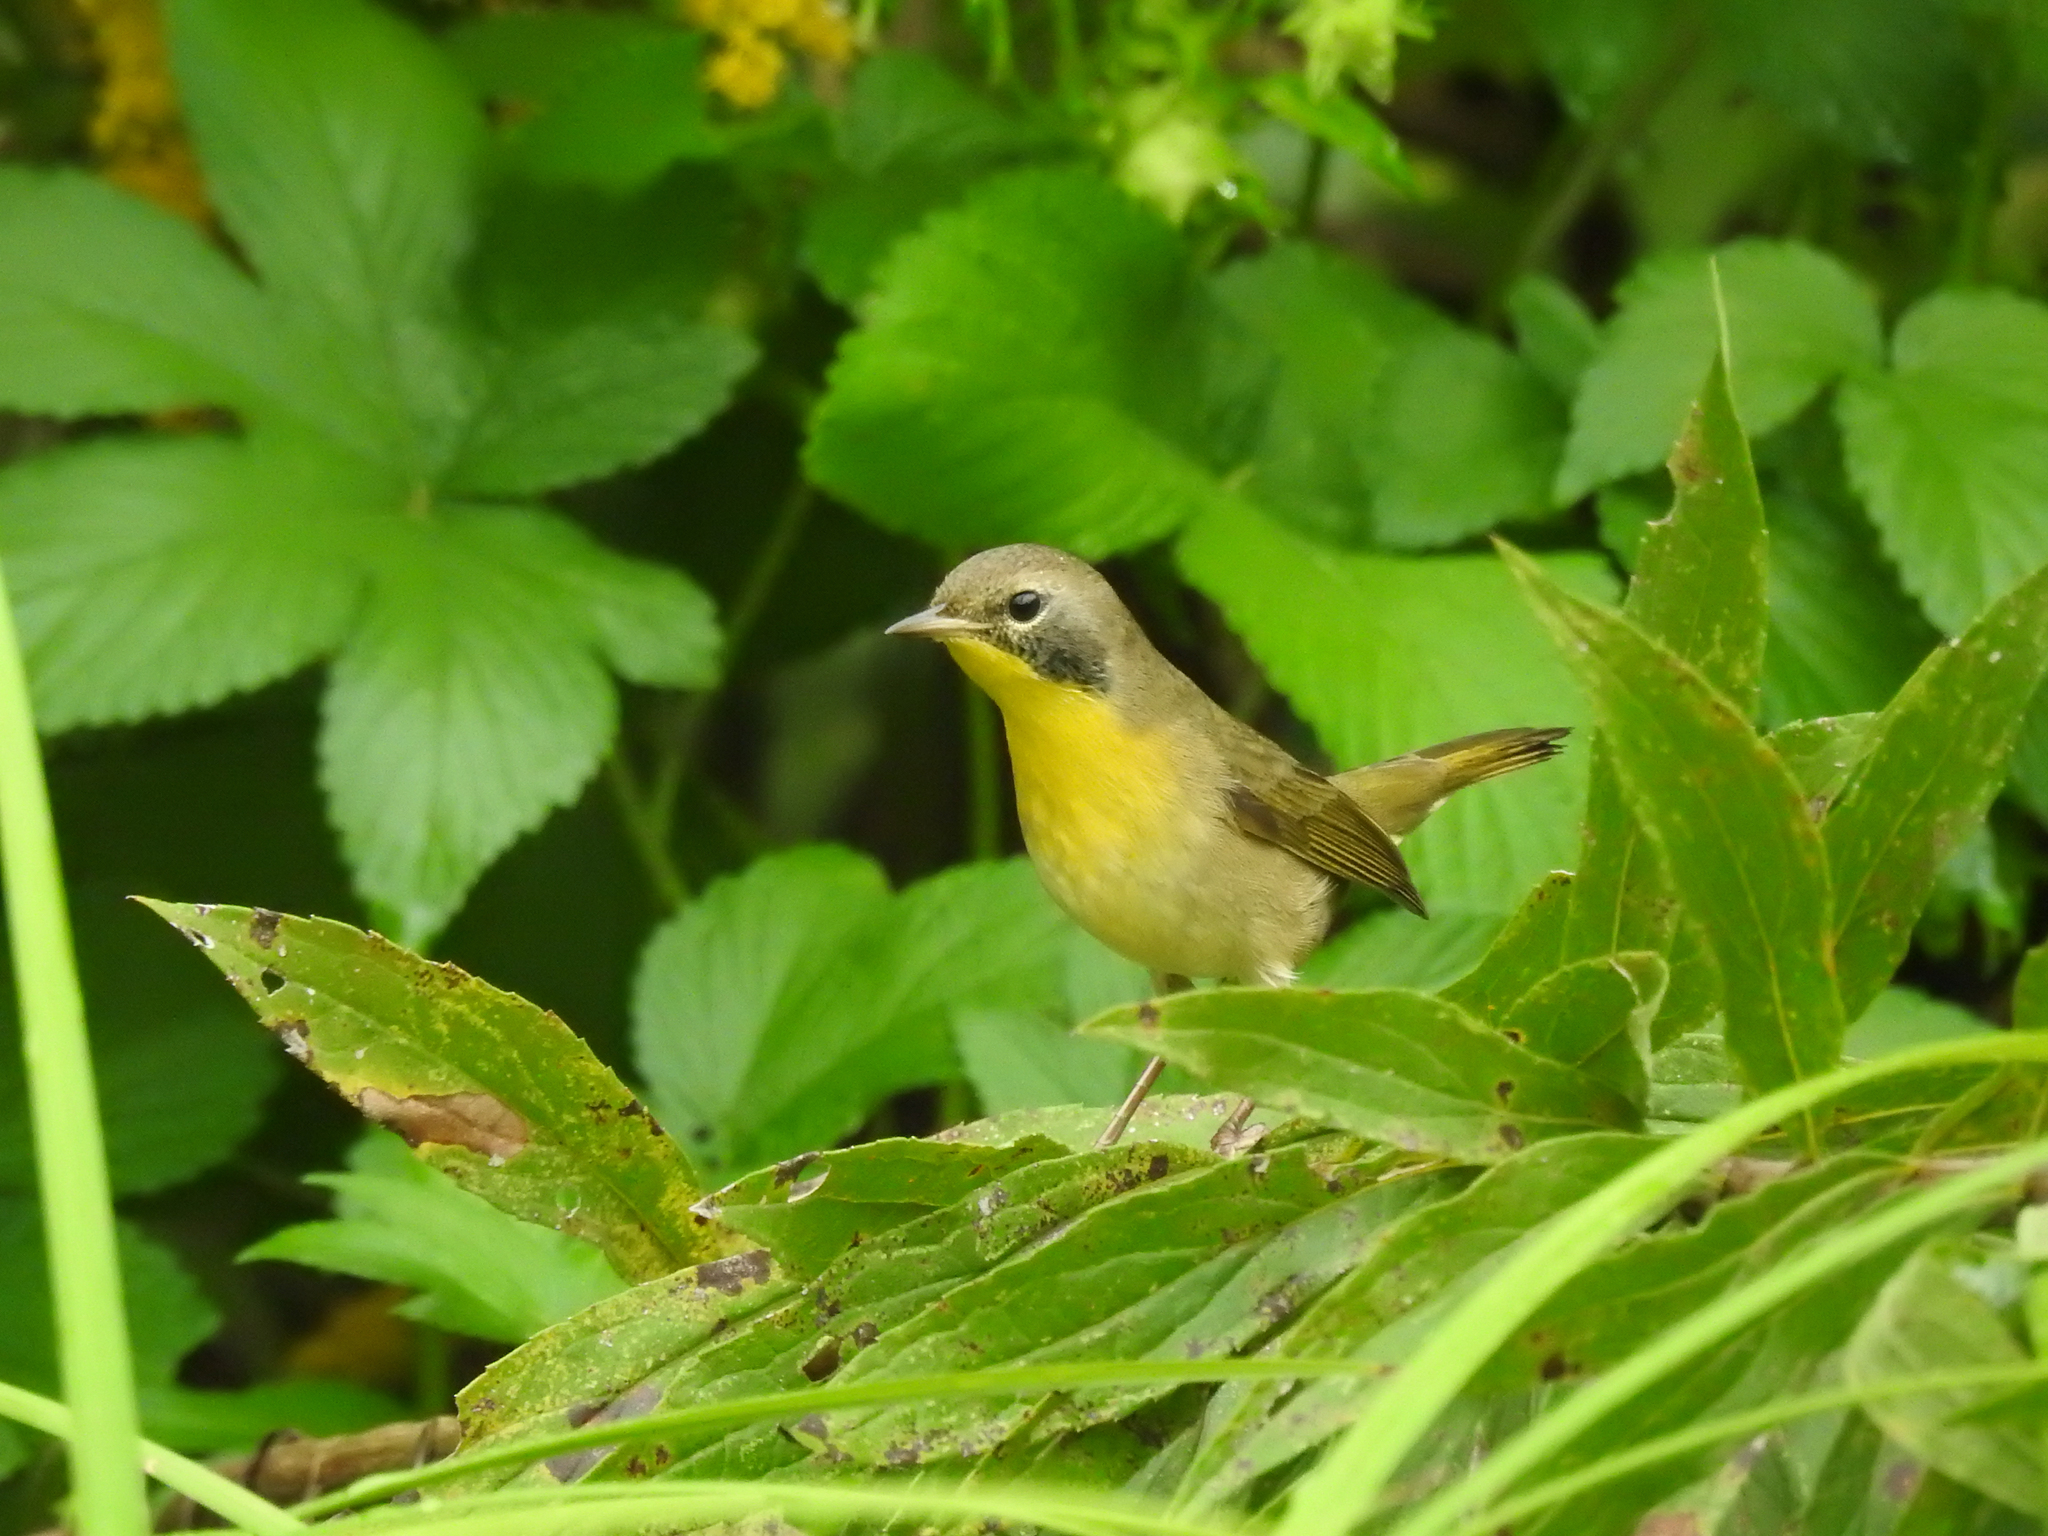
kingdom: Animalia
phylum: Chordata
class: Aves
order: Passeriformes
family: Parulidae
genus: Geothlypis
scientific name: Geothlypis trichas
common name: Common yellowthroat
